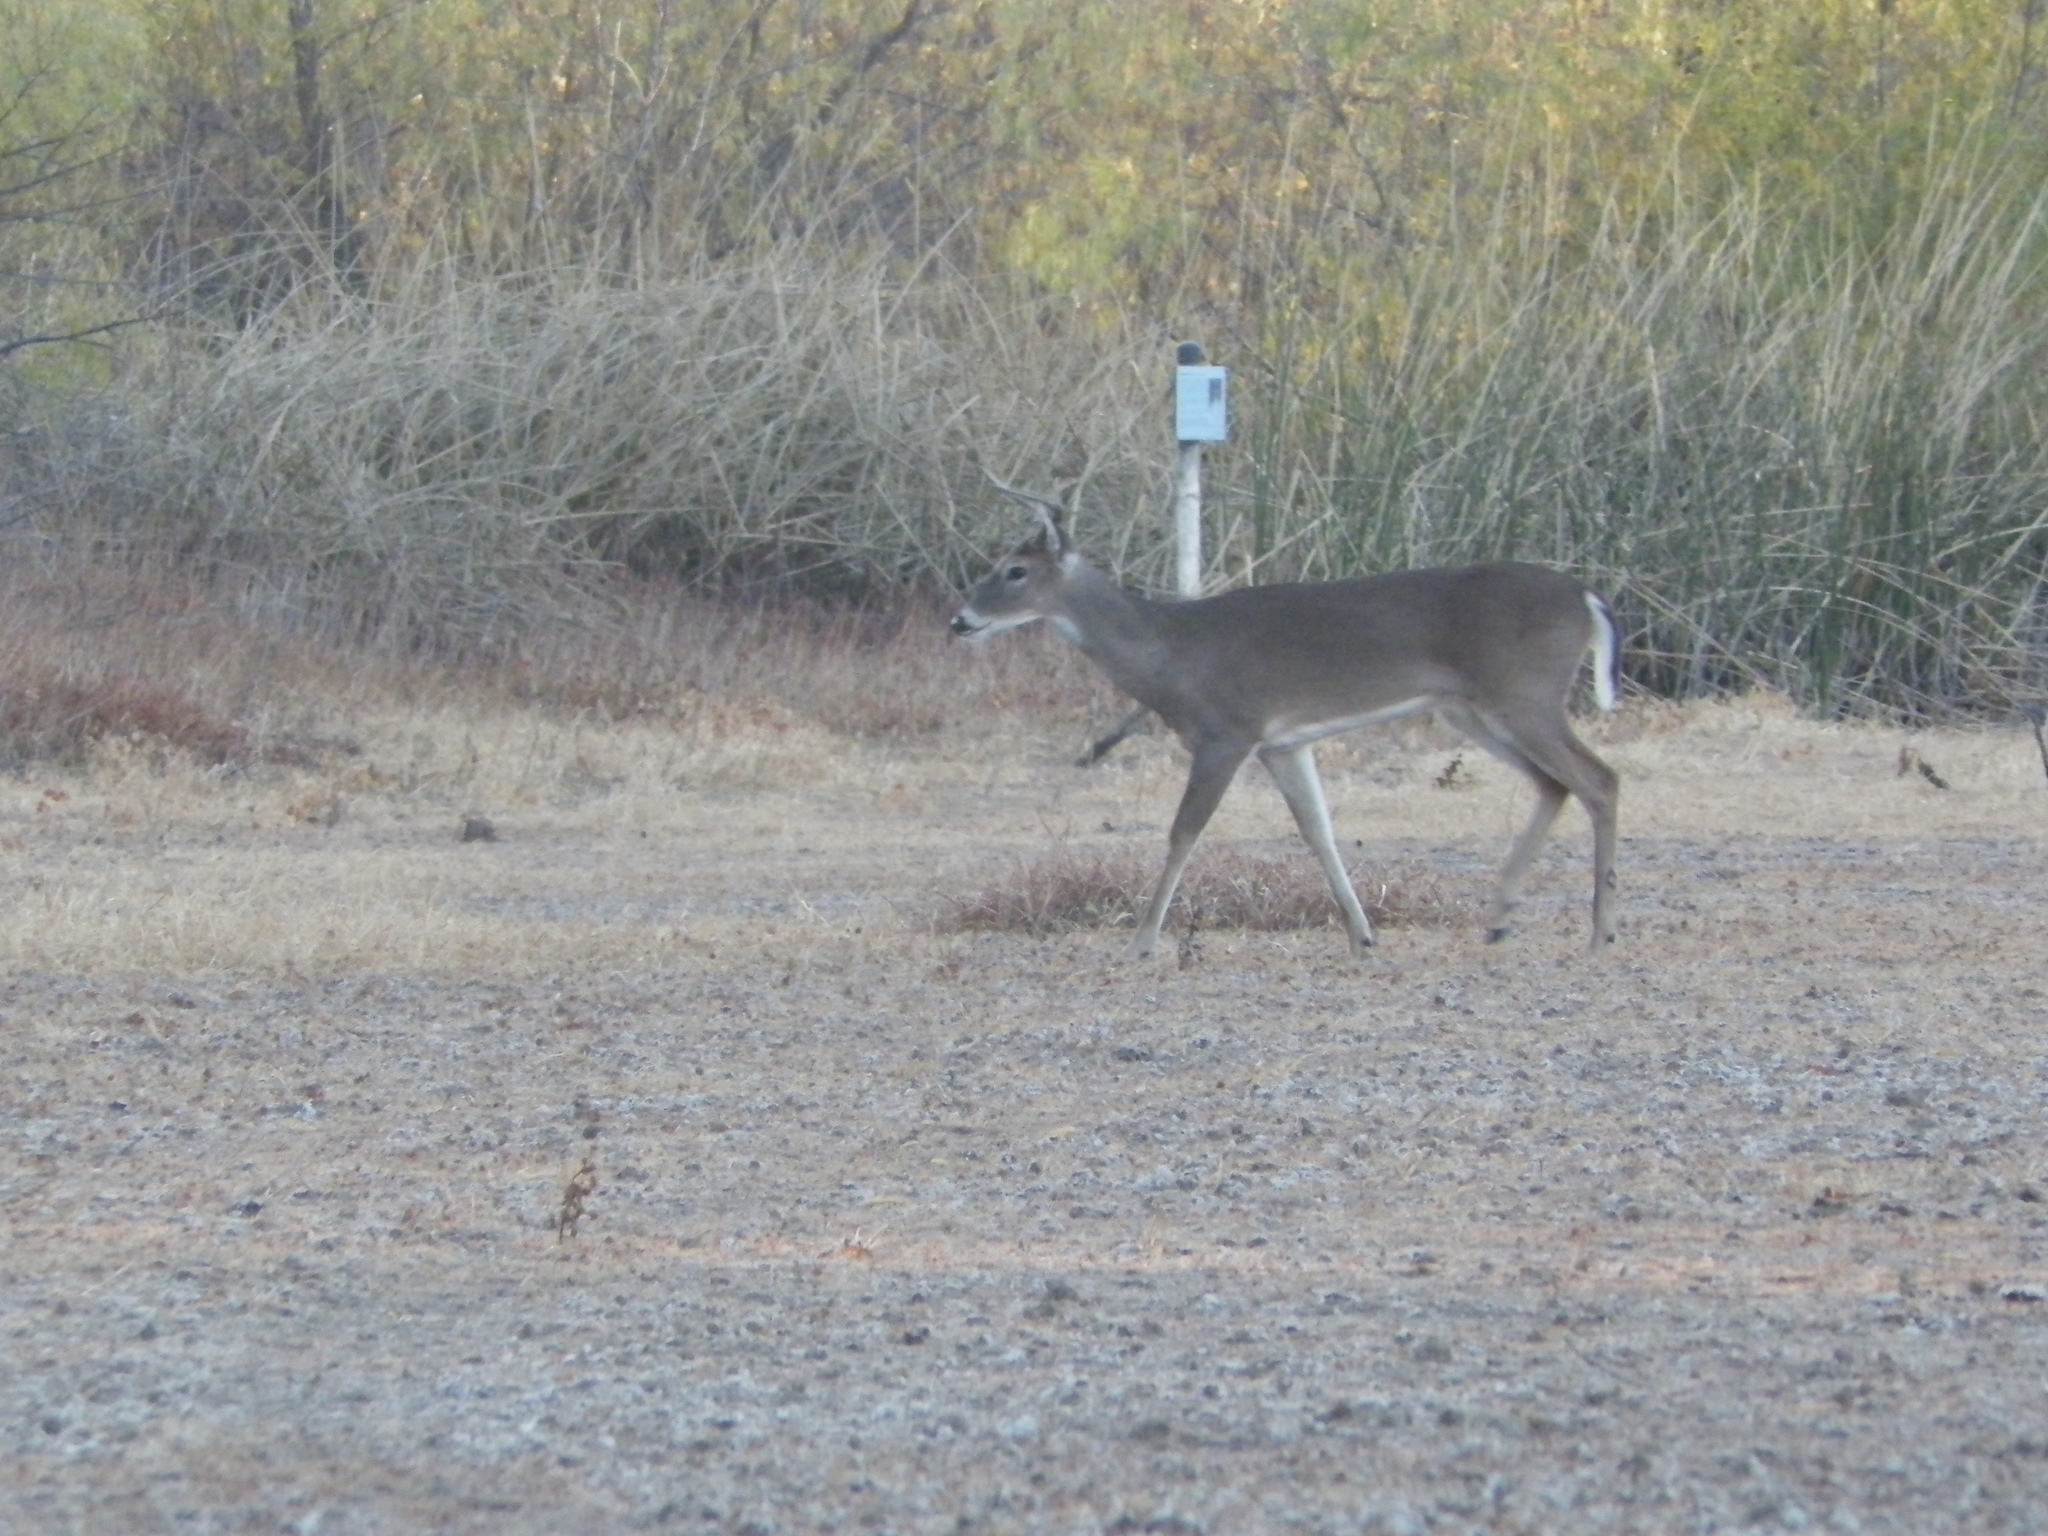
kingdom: Animalia
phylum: Chordata
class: Mammalia
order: Artiodactyla
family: Cervidae
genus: Odocoileus
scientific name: Odocoileus virginianus
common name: White-tailed deer
